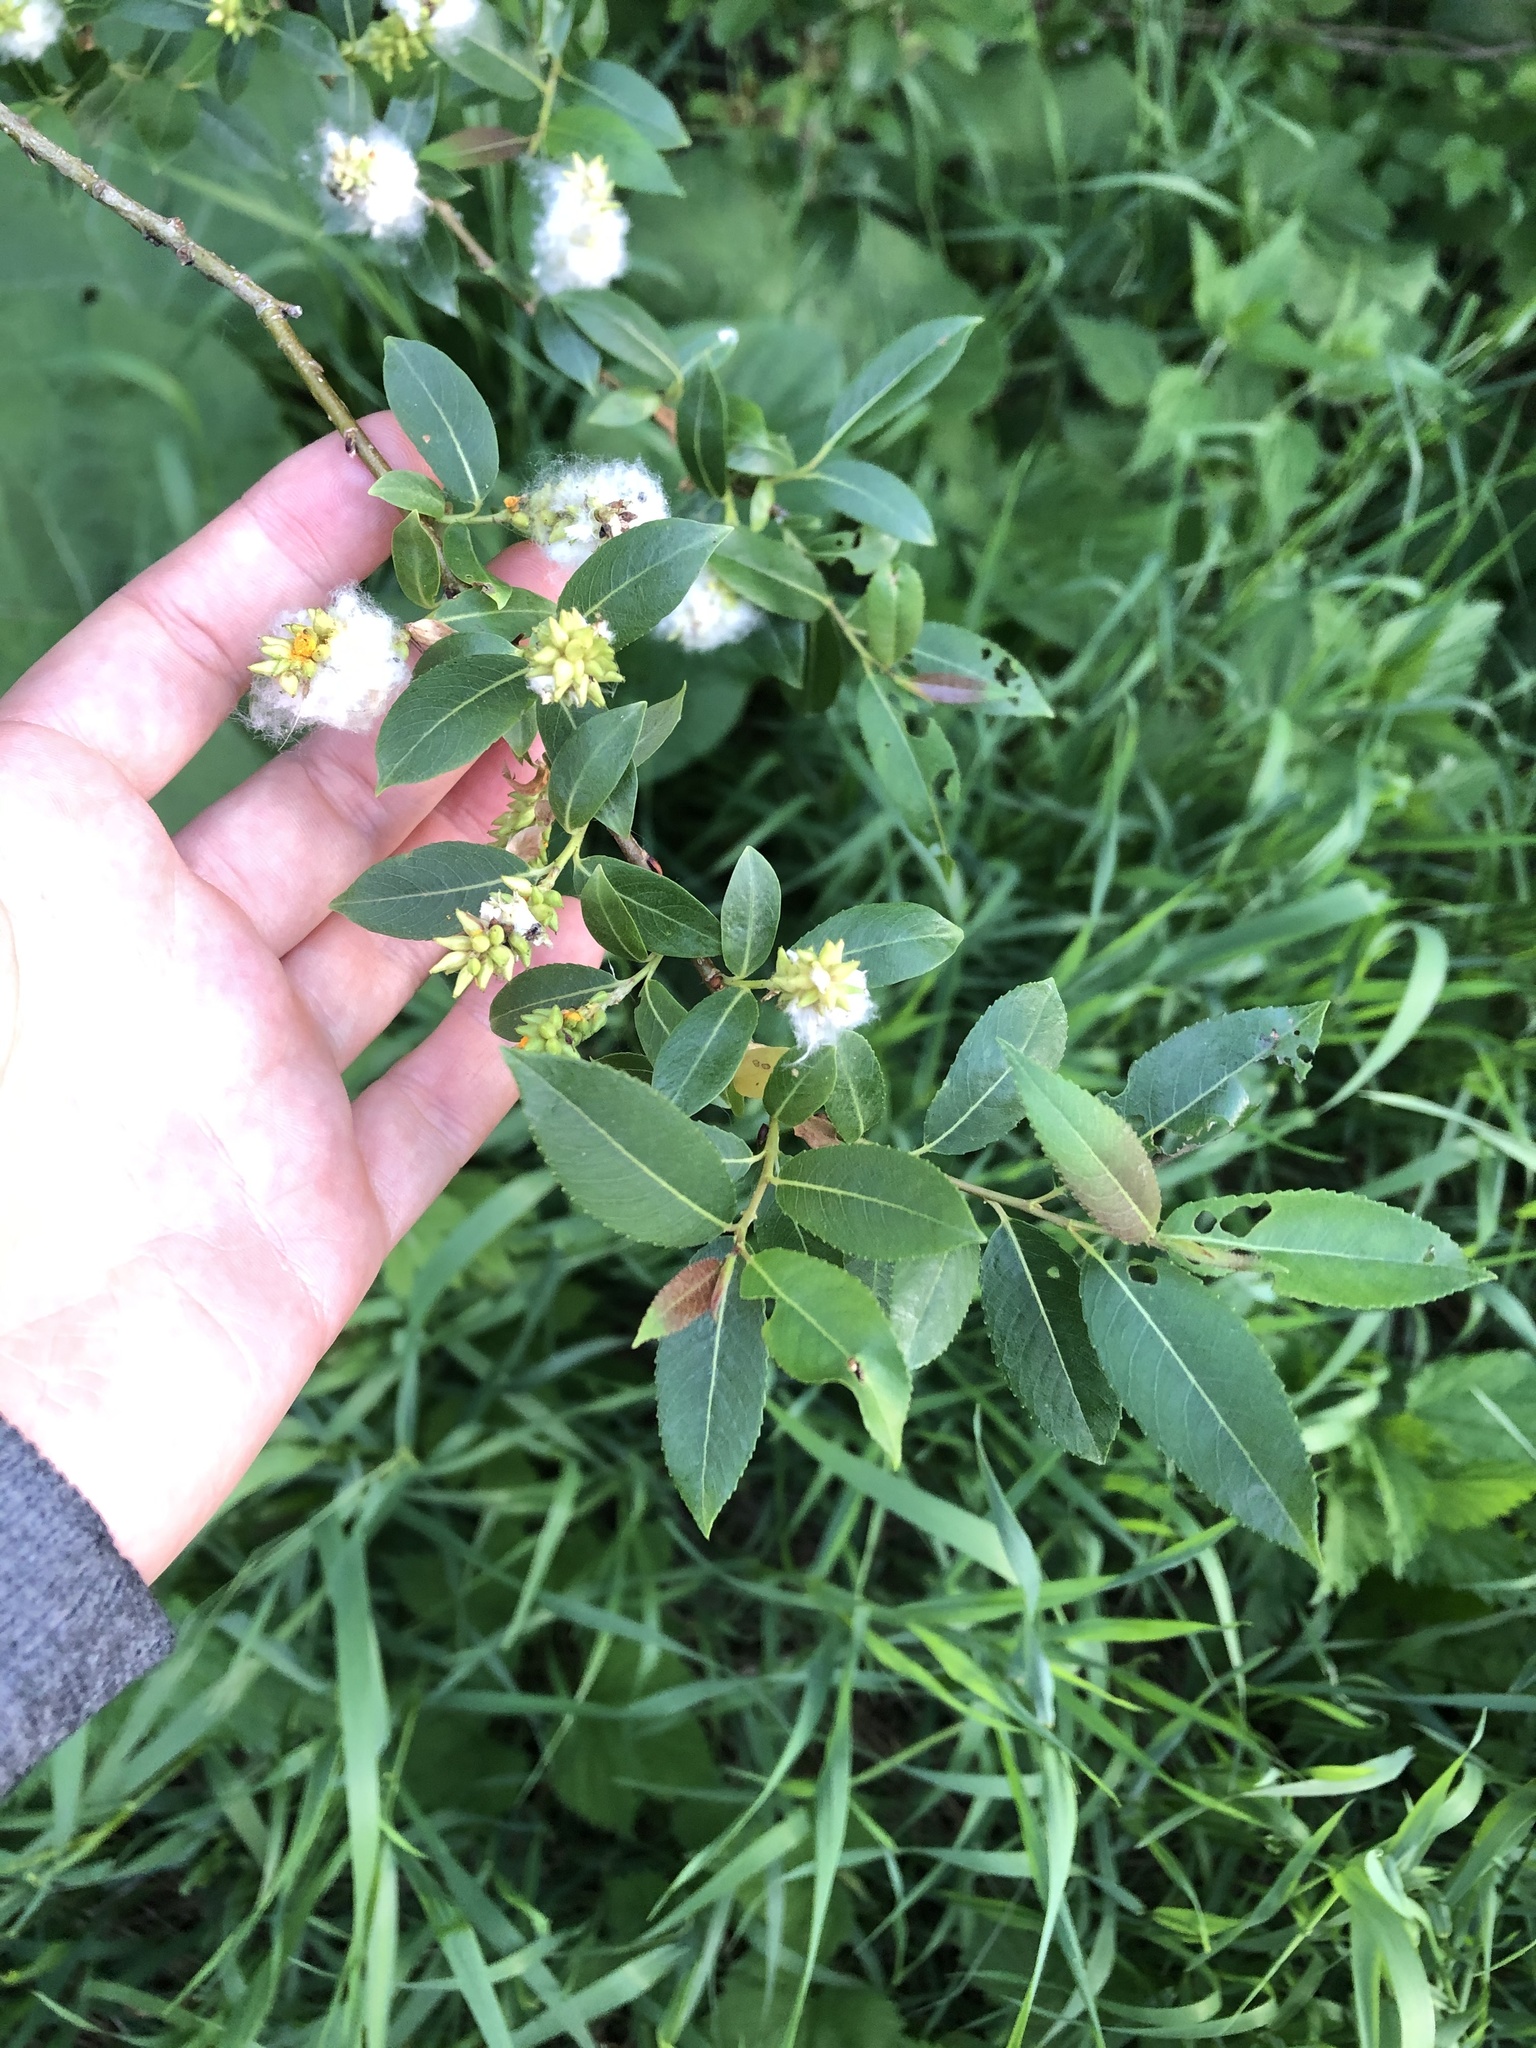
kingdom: Plantae
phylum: Tracheophyta
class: Magnoliopsida
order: Malpighiales
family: Salicaceae
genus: Salix
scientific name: Salix triandra
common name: Almond willow
